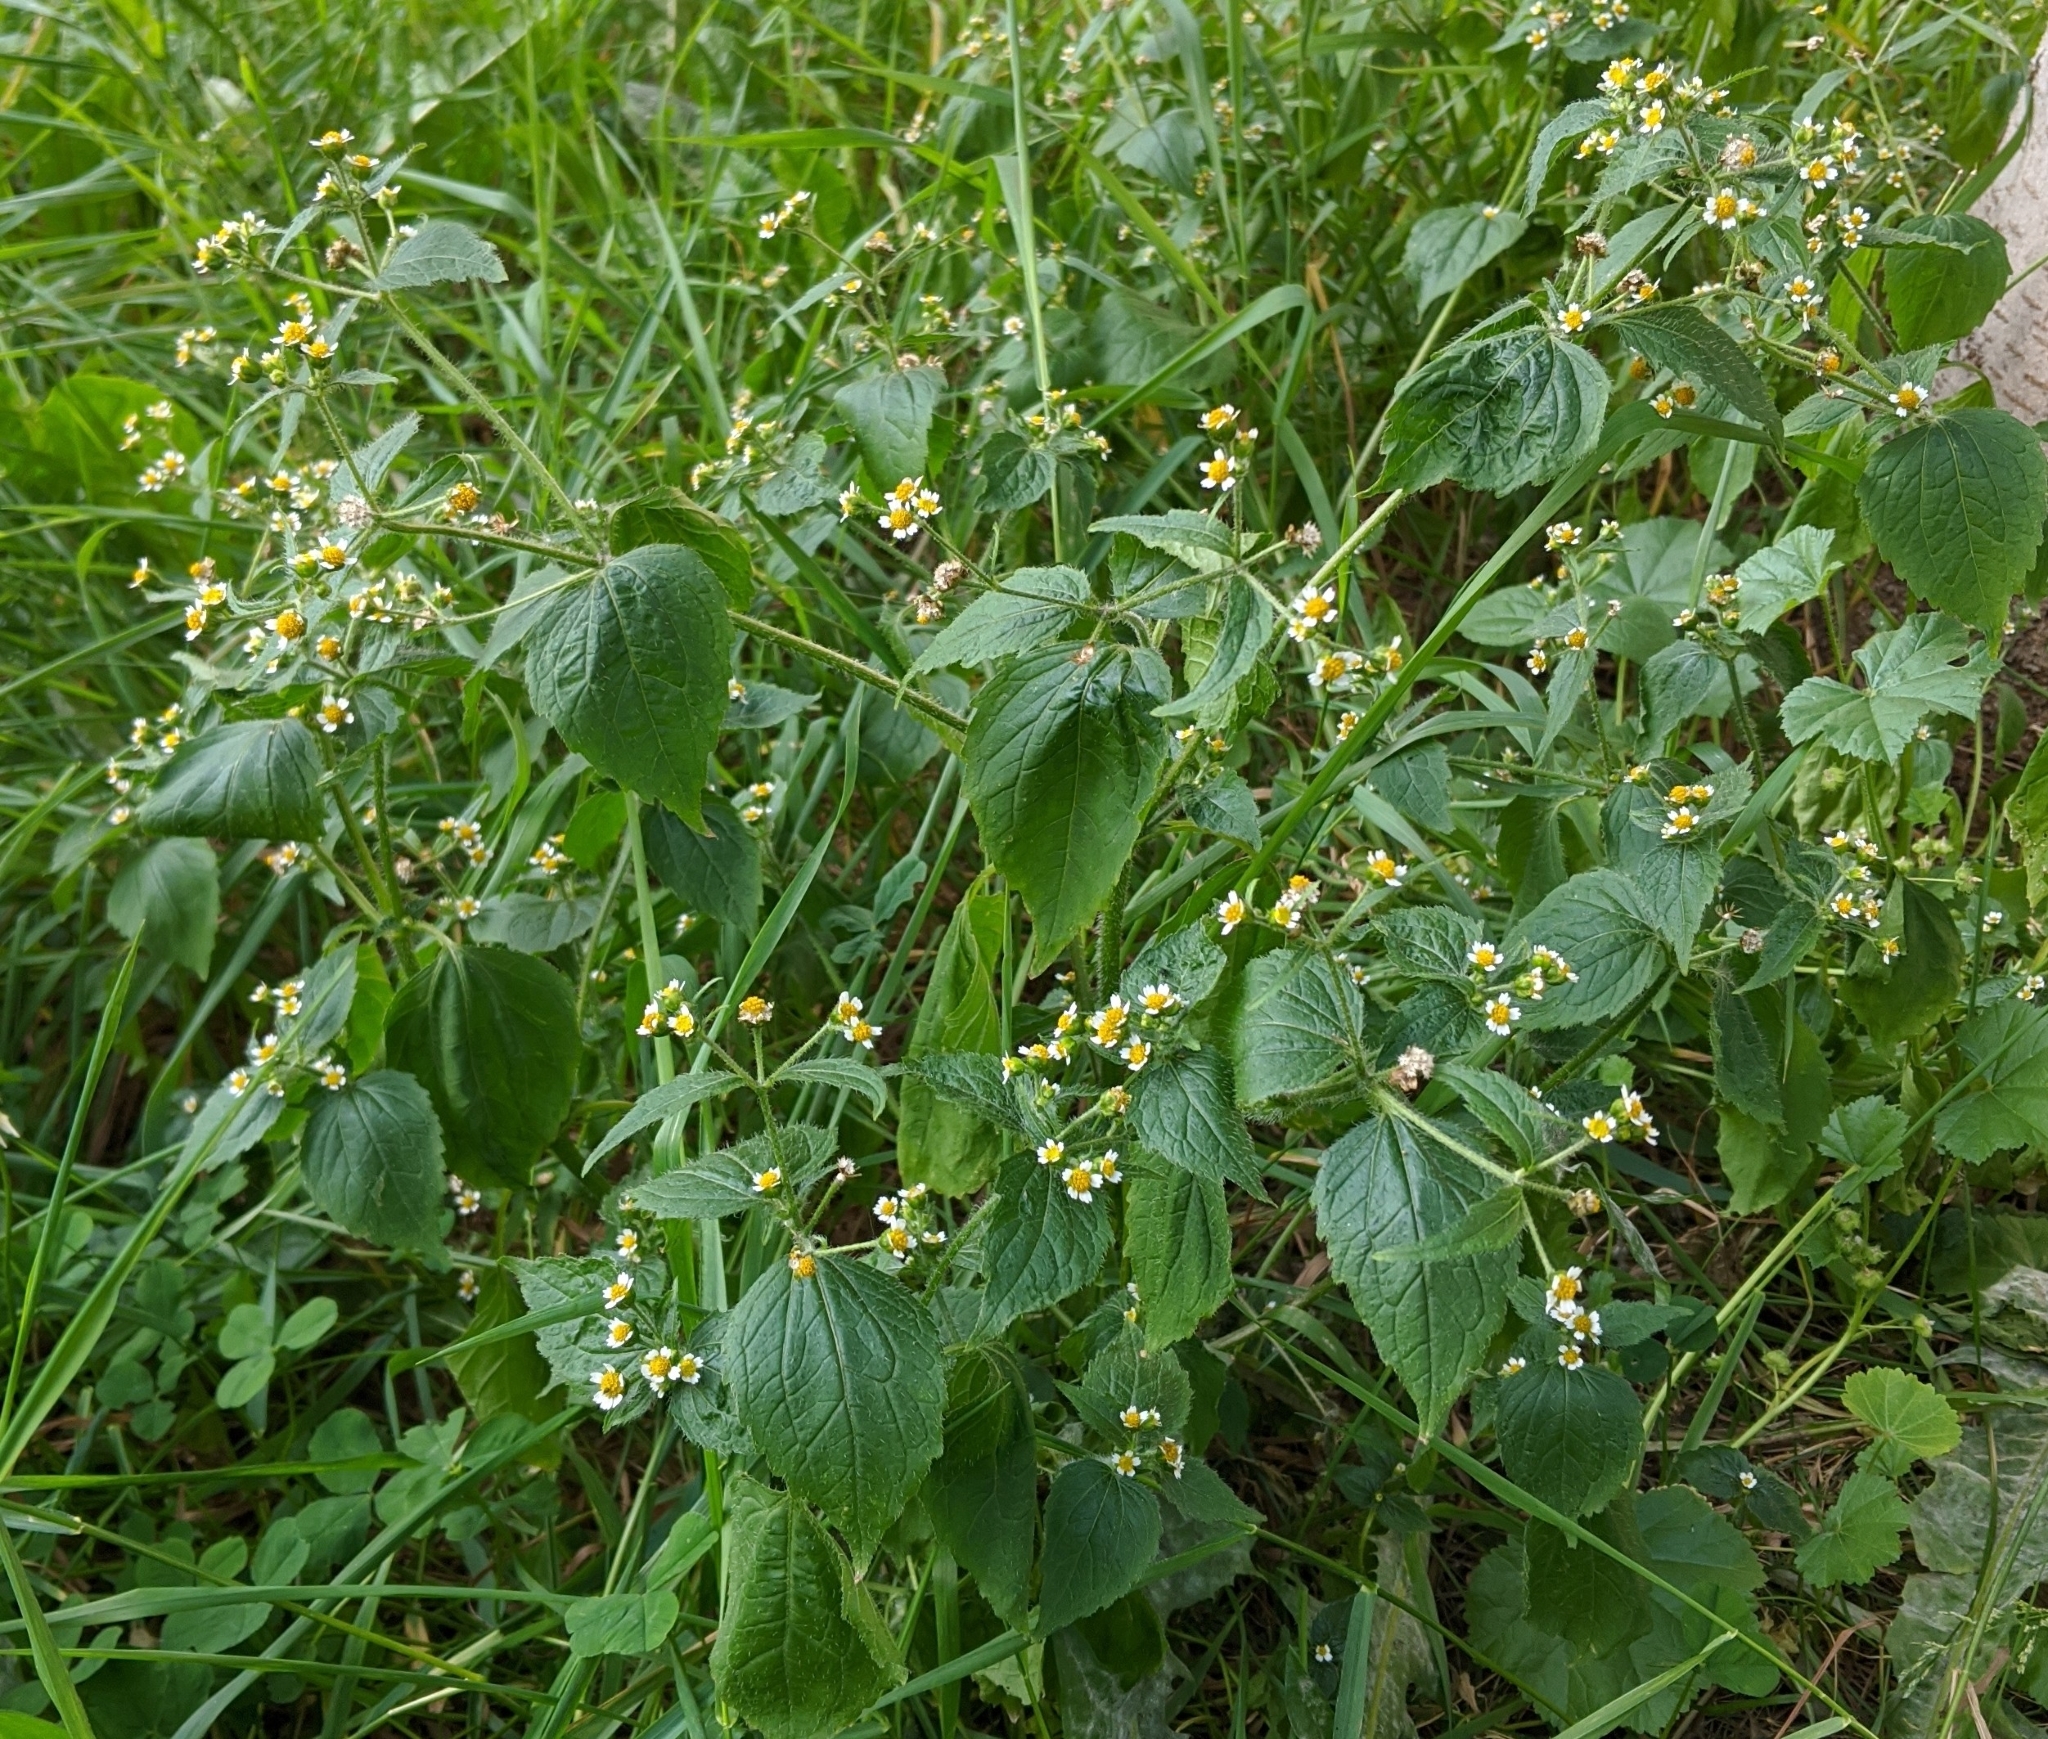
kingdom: Plantae
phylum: Tracheophyta
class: Magnoliopsida
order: Asterales
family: Asteraceae
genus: Galinsoga
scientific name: Galinsoga quadriradiata
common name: Shaggy soldier
